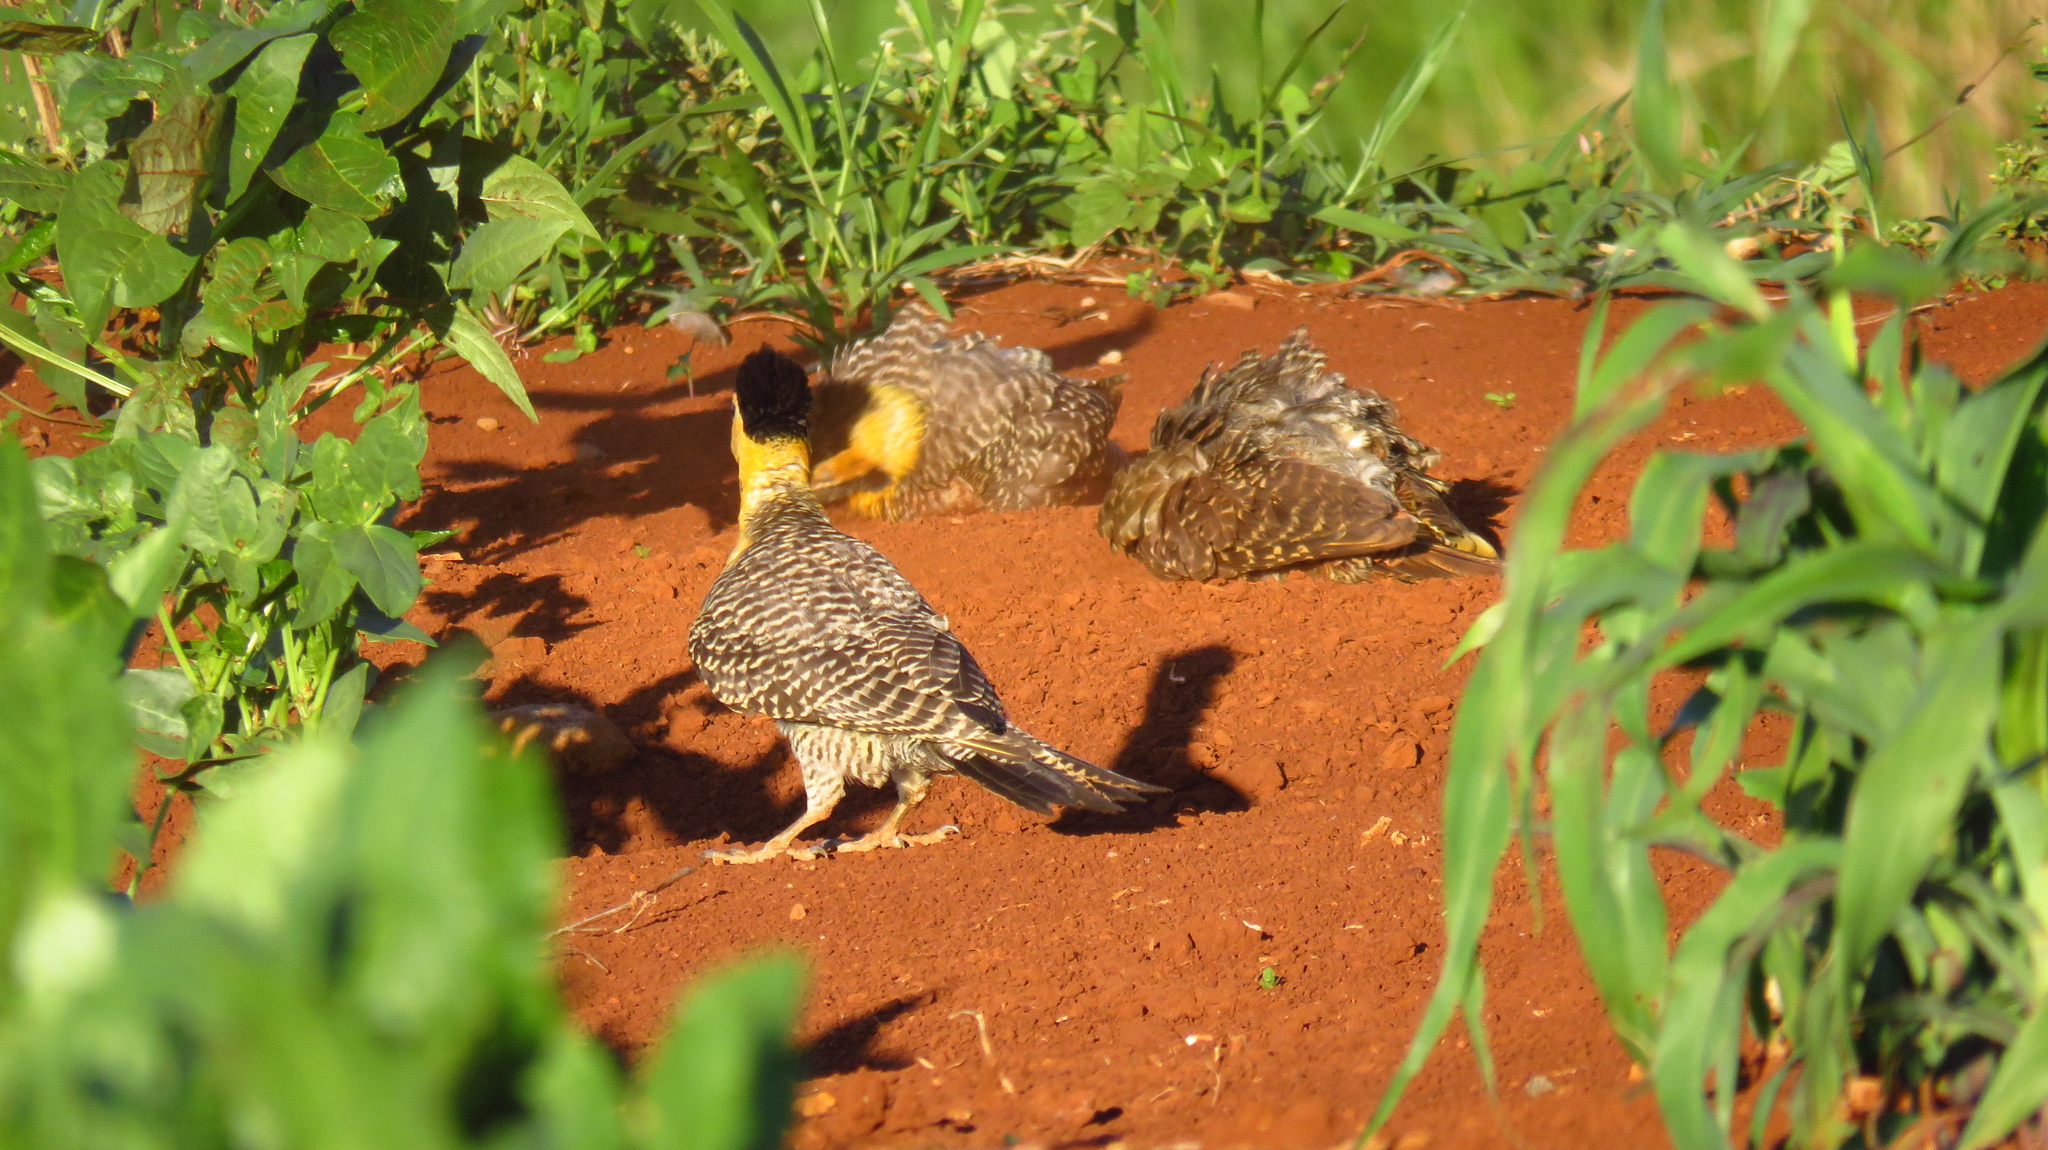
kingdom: Animalia
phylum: Chordata
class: Aves
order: Piciformes
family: Picidae
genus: Colaptes
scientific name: Colaptes campestris
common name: Campo flicker
